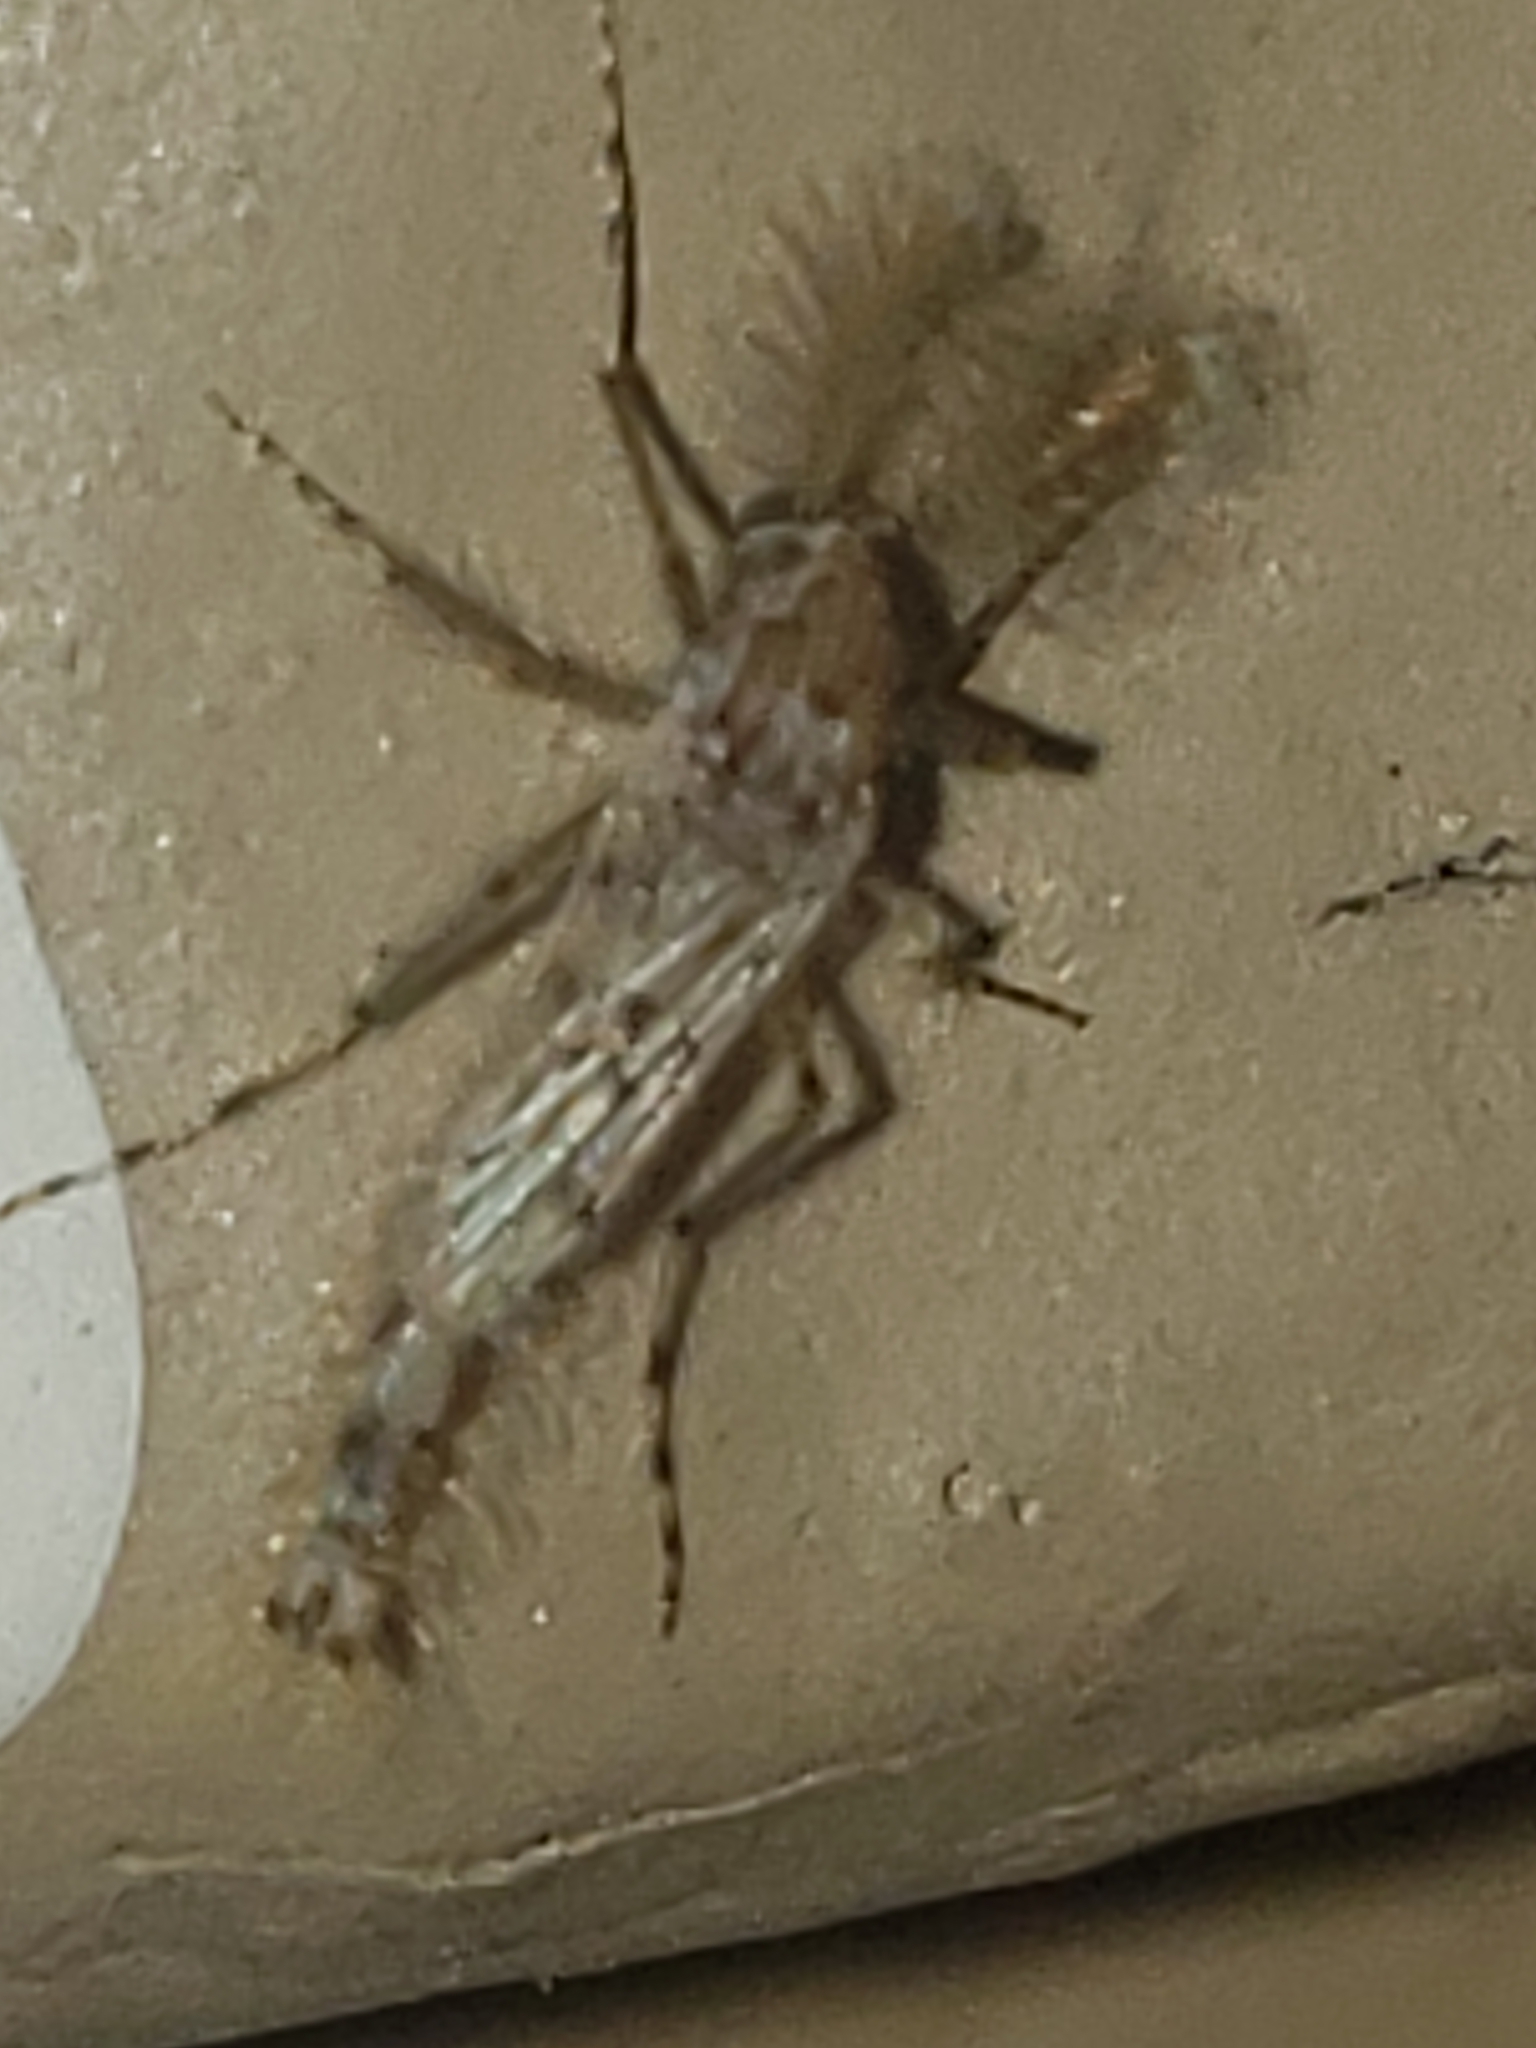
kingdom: Animalia
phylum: Arthropoda
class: Insecta
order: Diptera
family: Chaoboridae
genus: Chaoborus
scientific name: Chaoborus punctipennis
